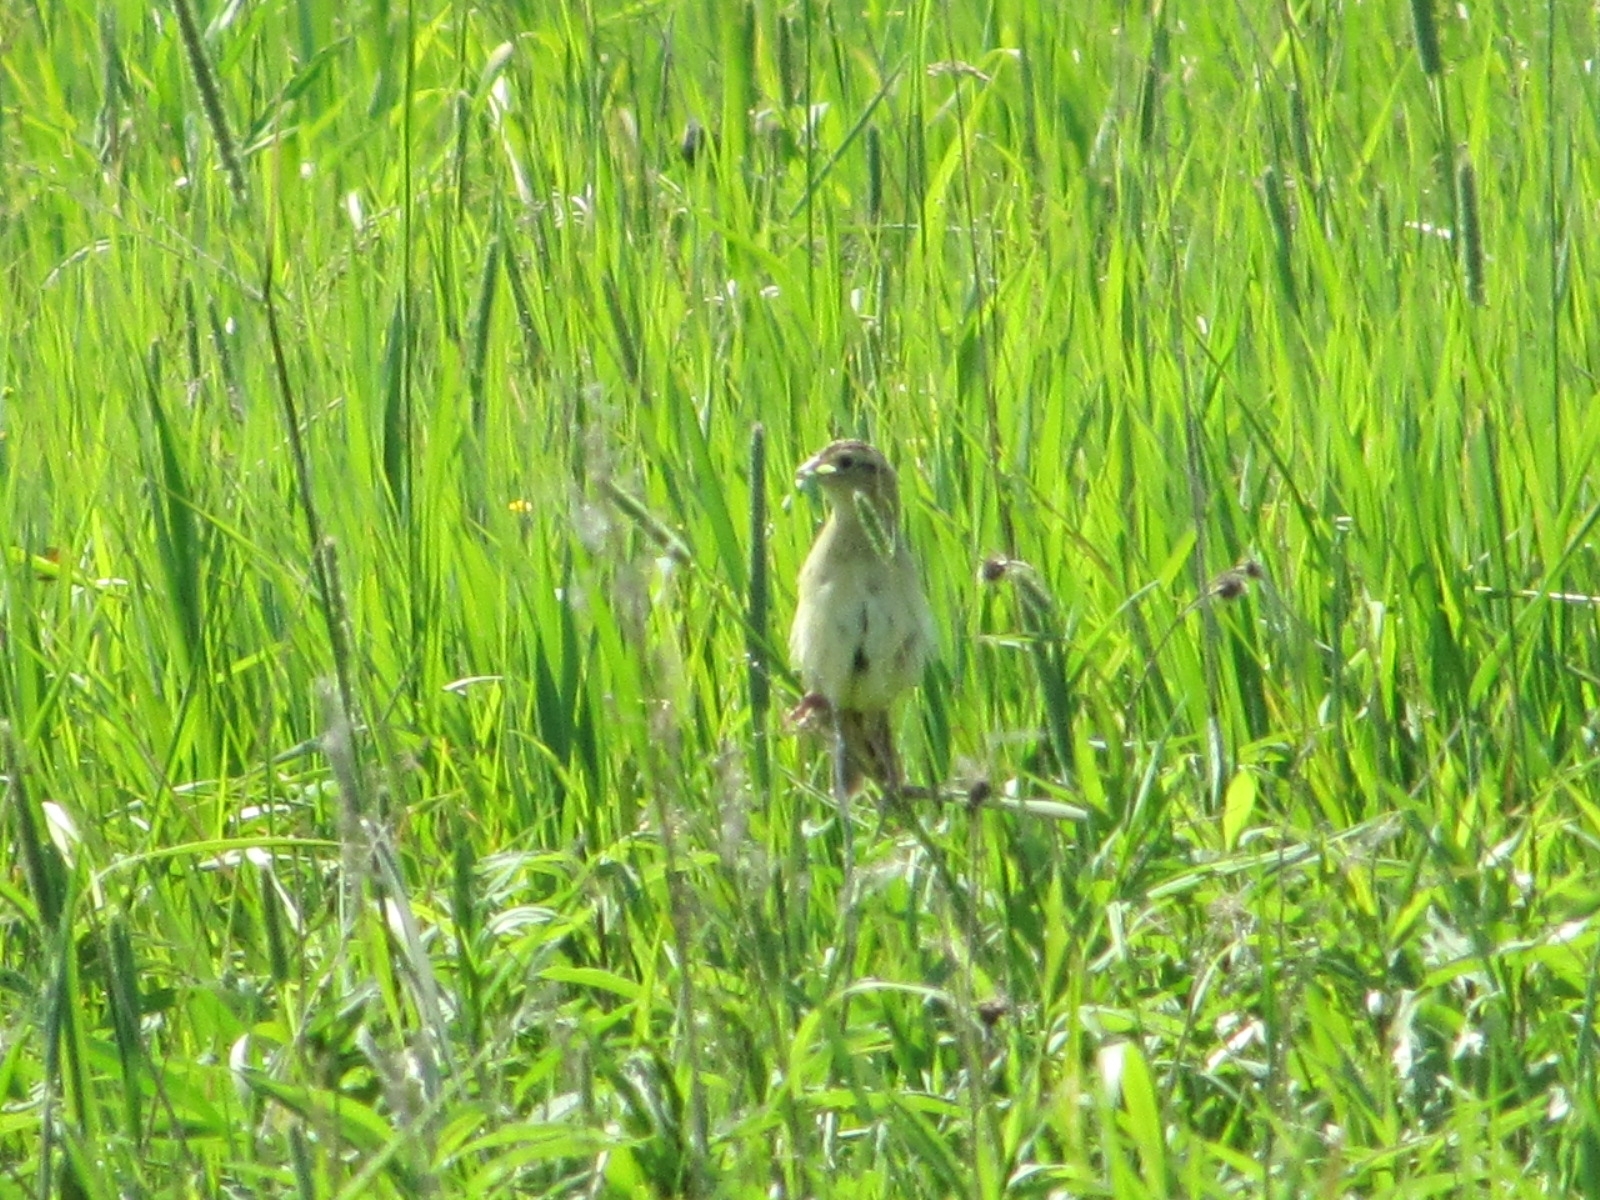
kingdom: Animalia
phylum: Chordata
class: Aves
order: Passeriformes
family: Icteridae
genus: Dolichonyx
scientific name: Dolichonyx oryzivorus
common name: Bobolink
